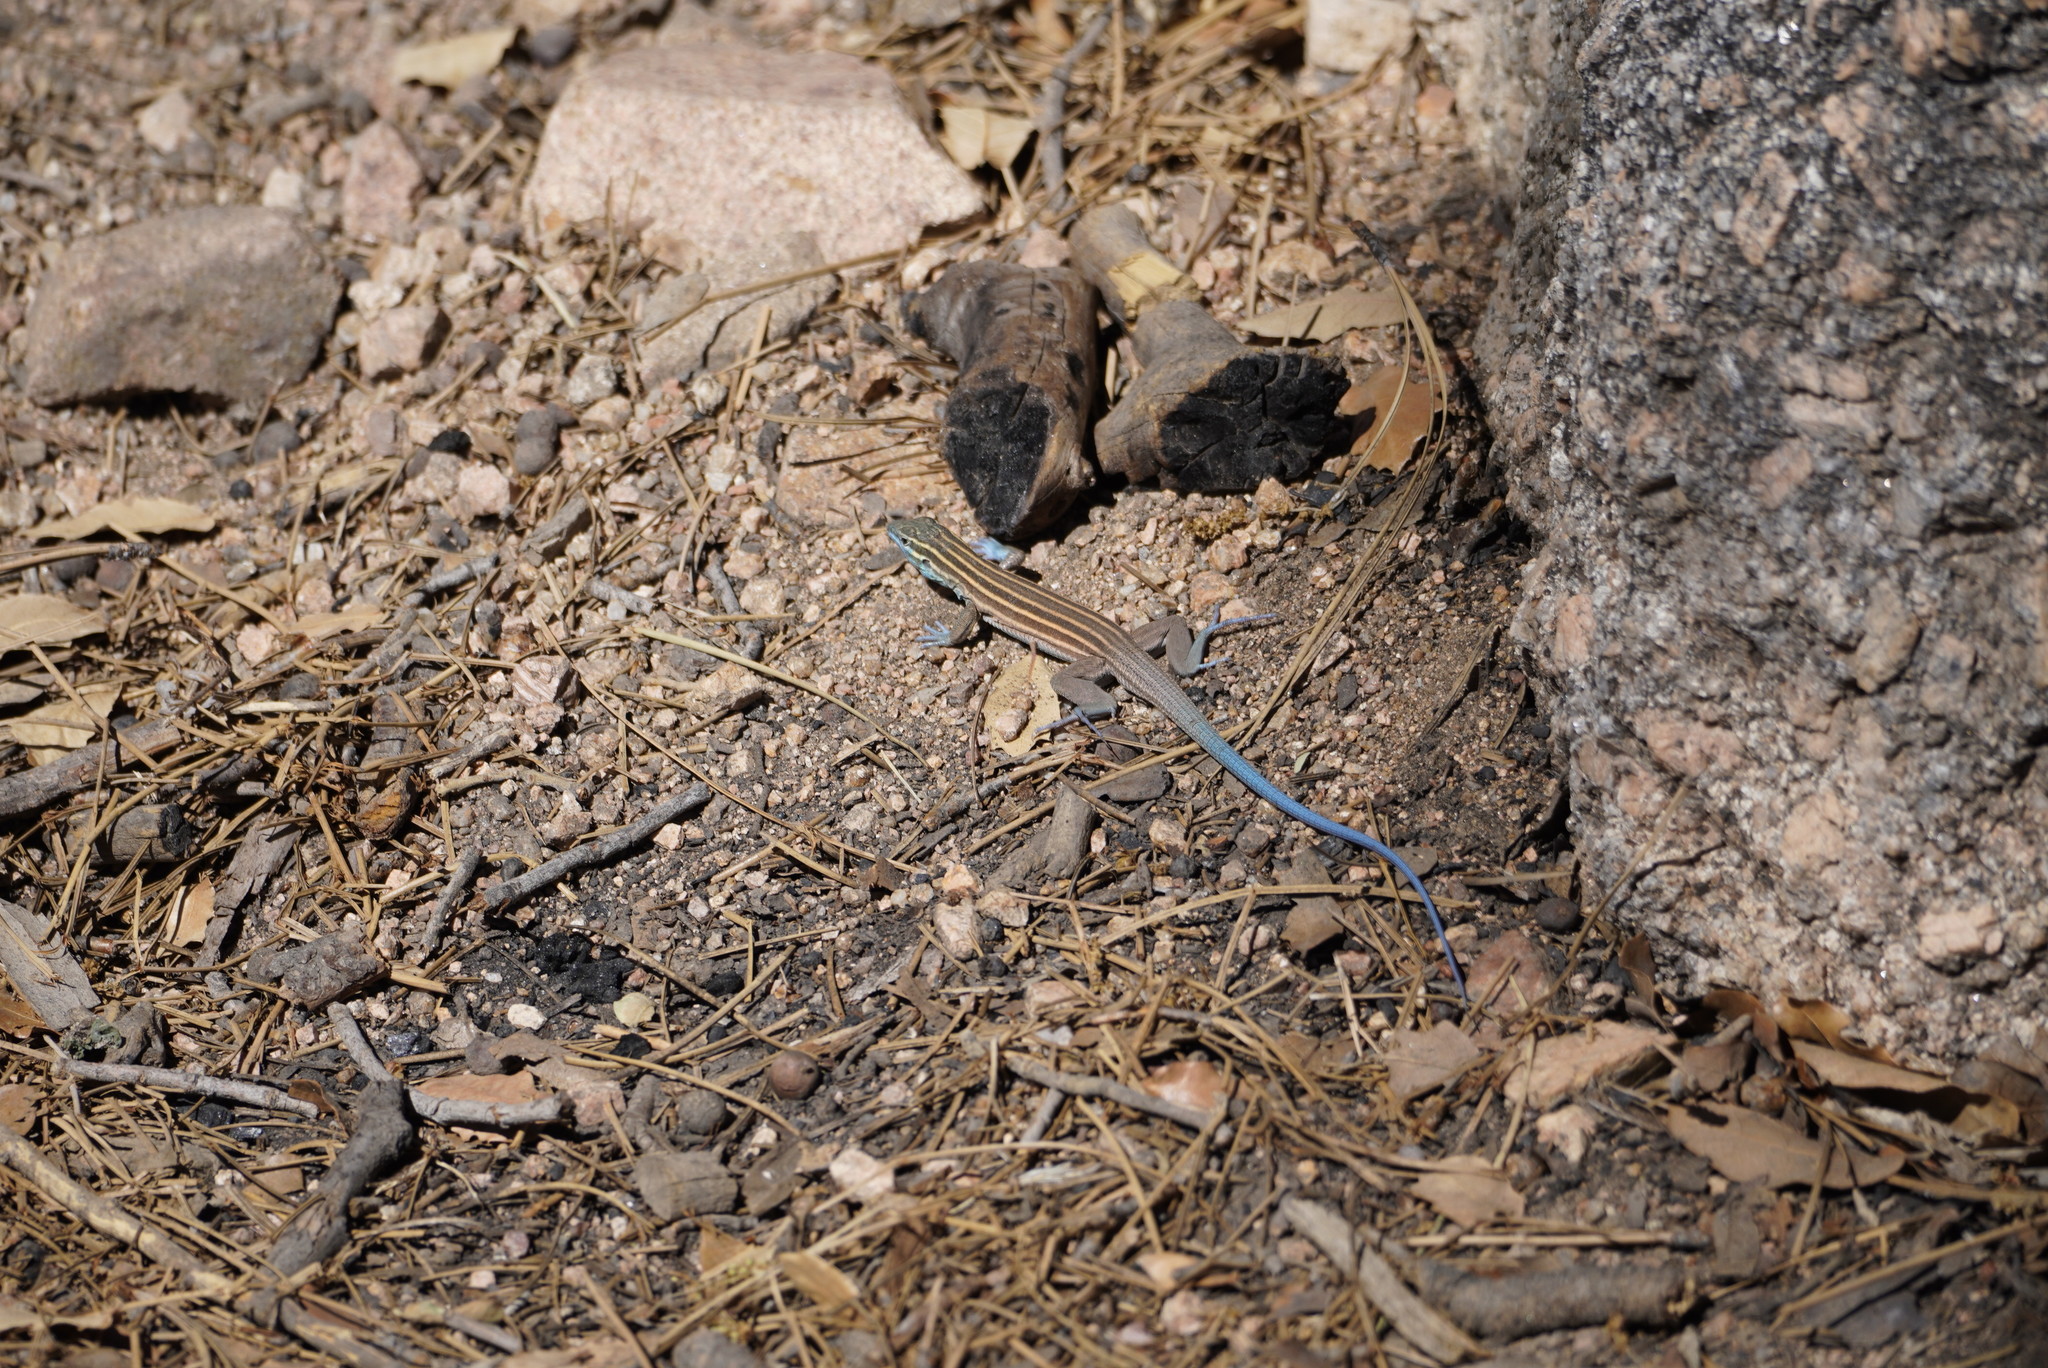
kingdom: Animalia
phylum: Chordata
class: Squamata
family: Teiidae
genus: Aspidoscelis
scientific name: Aspidoscelis pai
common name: Pai striped whiptail
